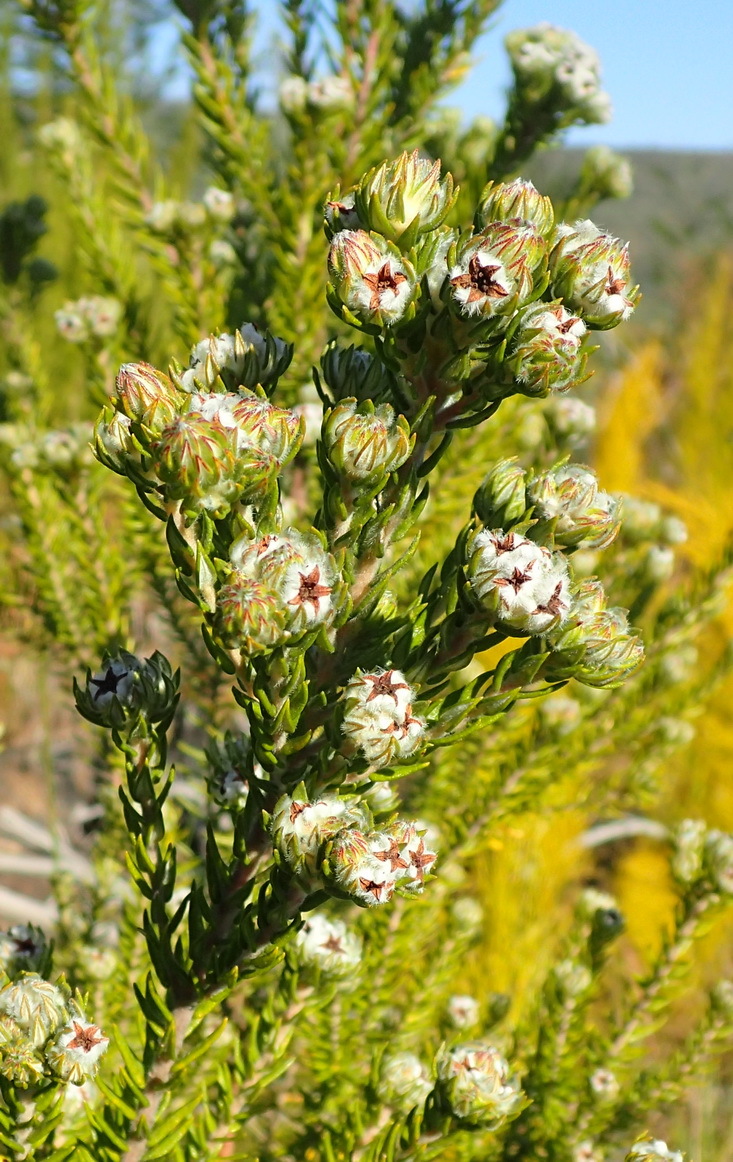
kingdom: Plantae
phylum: Tracheophyta
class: Magnoliopsida
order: Rosales
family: Rhamnaceae
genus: Phylica
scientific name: Phylica purpurea
